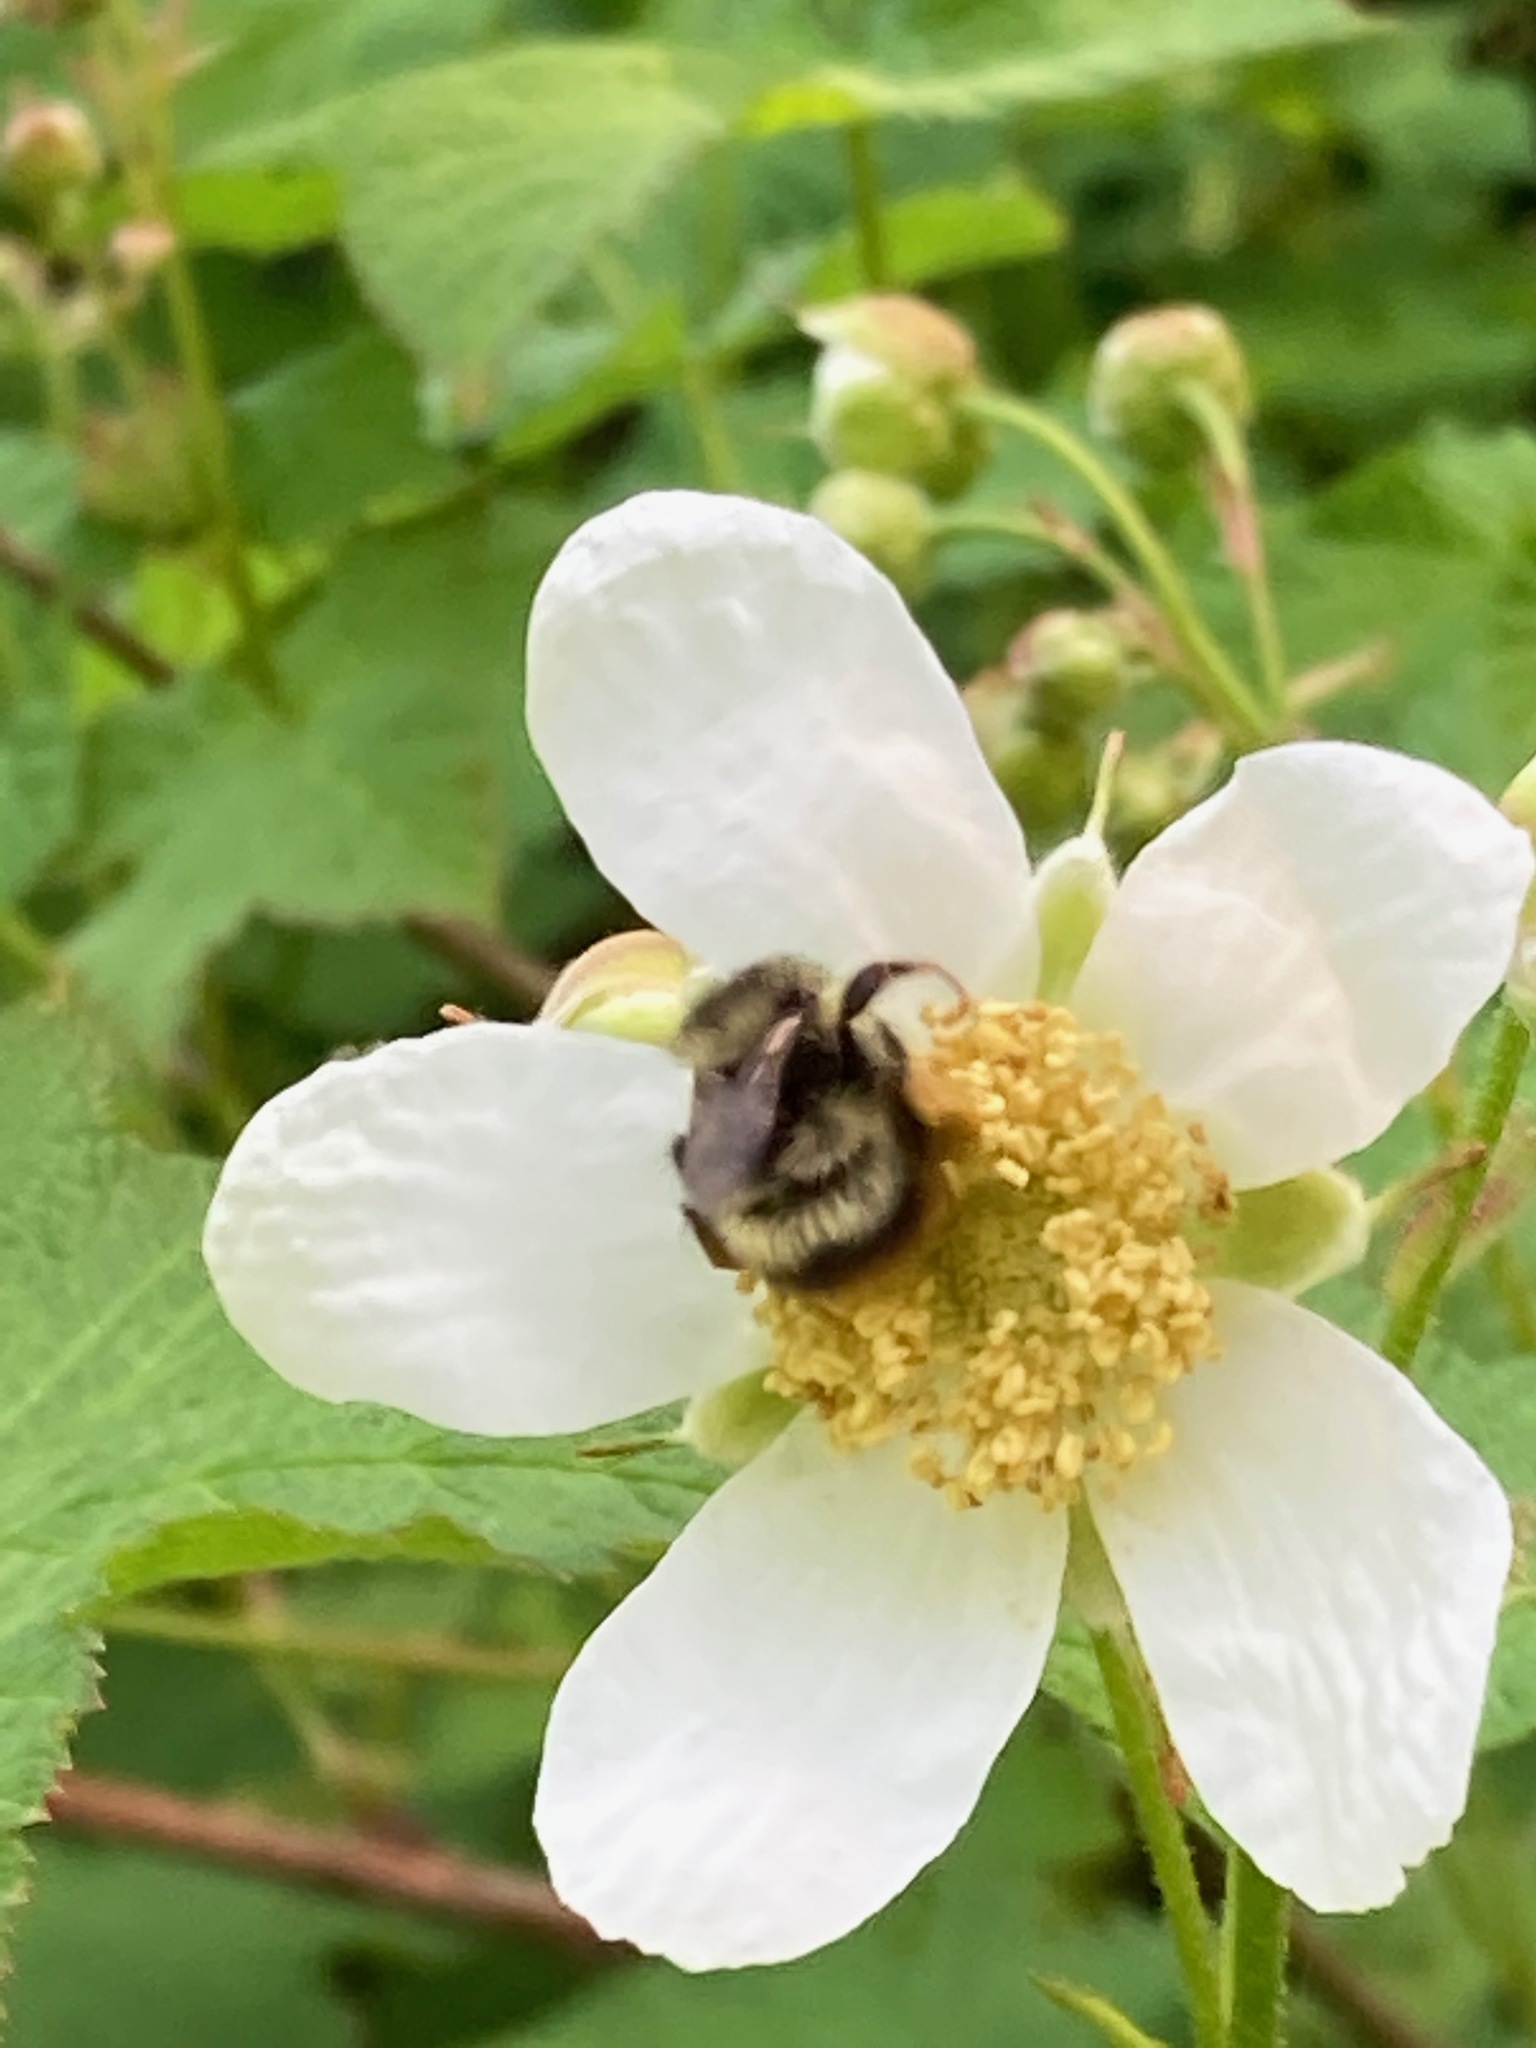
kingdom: Animalia
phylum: Arthropoda
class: Insecta
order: Hymenoptera
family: Apidae
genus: Bombus
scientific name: Bombus mixtus
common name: Fuzzy-horned bumble bee
